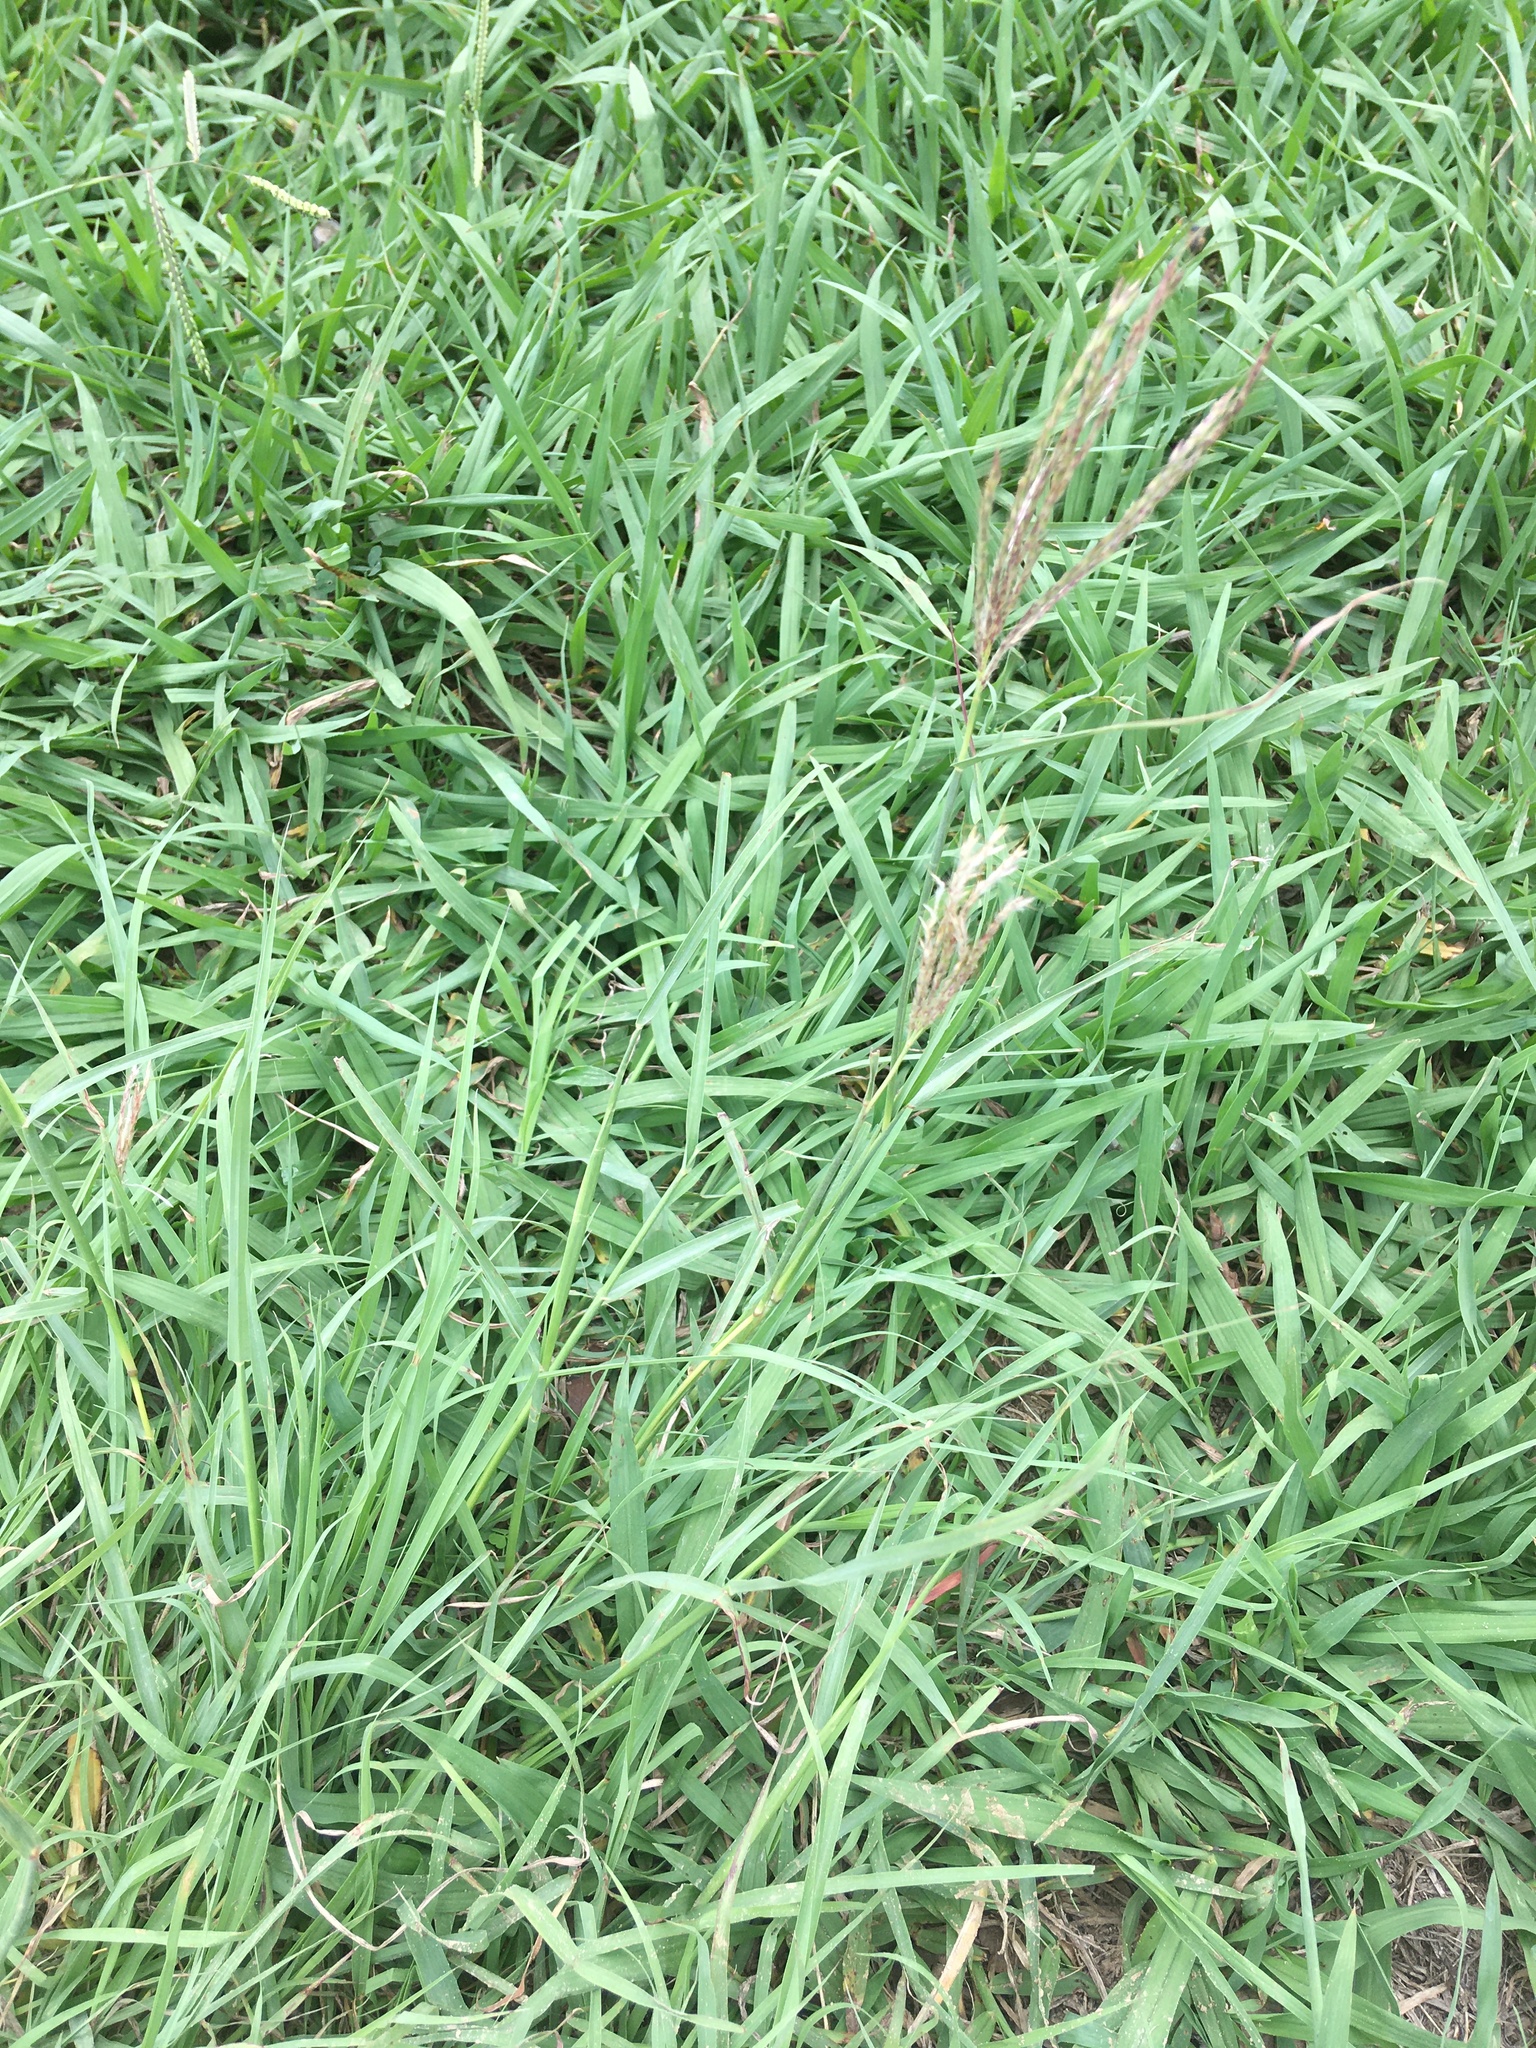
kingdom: Plantae
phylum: Tracheophyta
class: Liliopsida
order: Poales
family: Poaceae
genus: Bothriochloa
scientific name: Bothriochloa ischaemum
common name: Yellow bluestem
